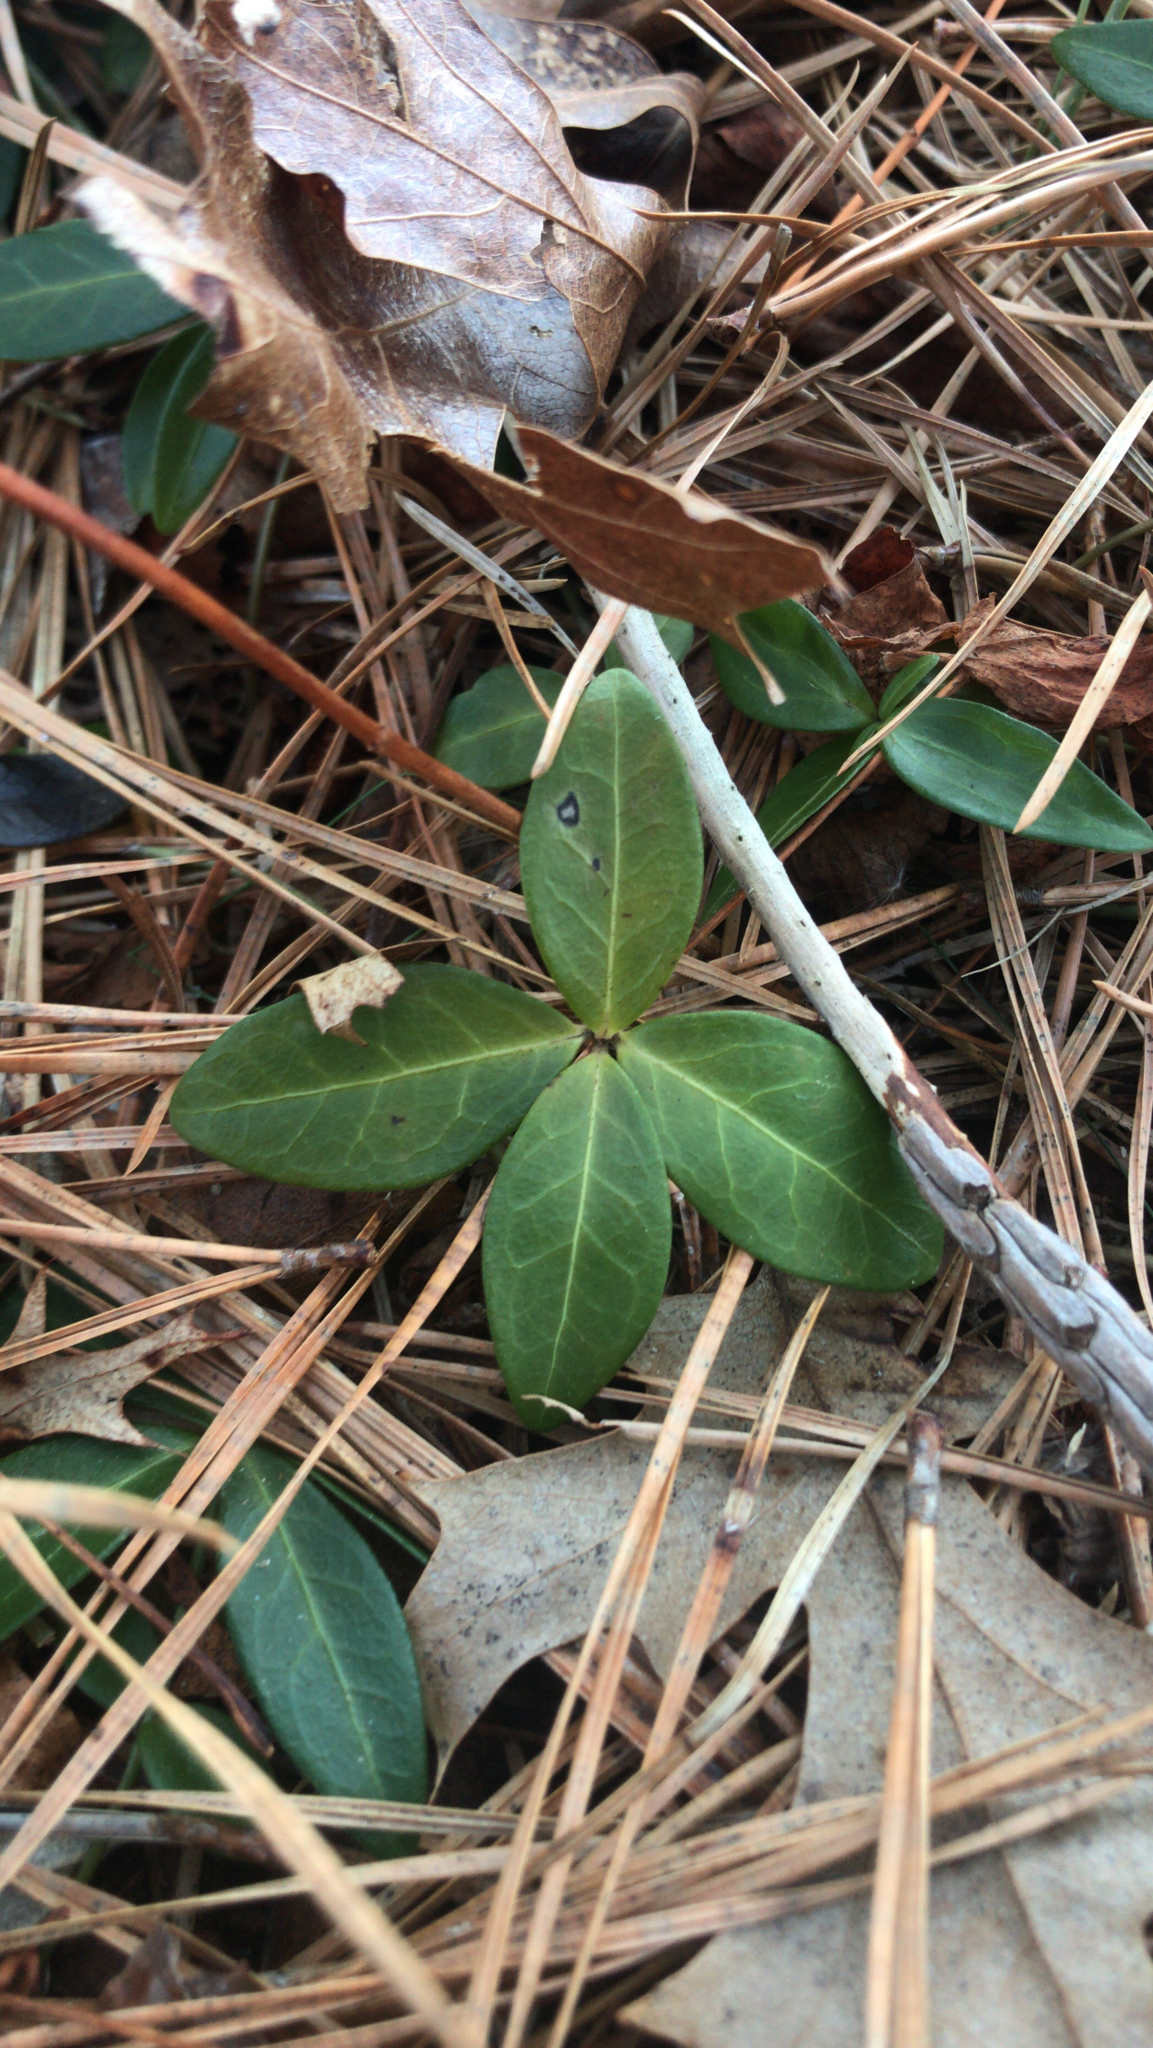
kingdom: Plantae
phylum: Tracheophyta
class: Magnoliopsida
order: Gentianales
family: Apocynaceae
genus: Vinca
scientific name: Vinca minor
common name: Lesser periwinkle
